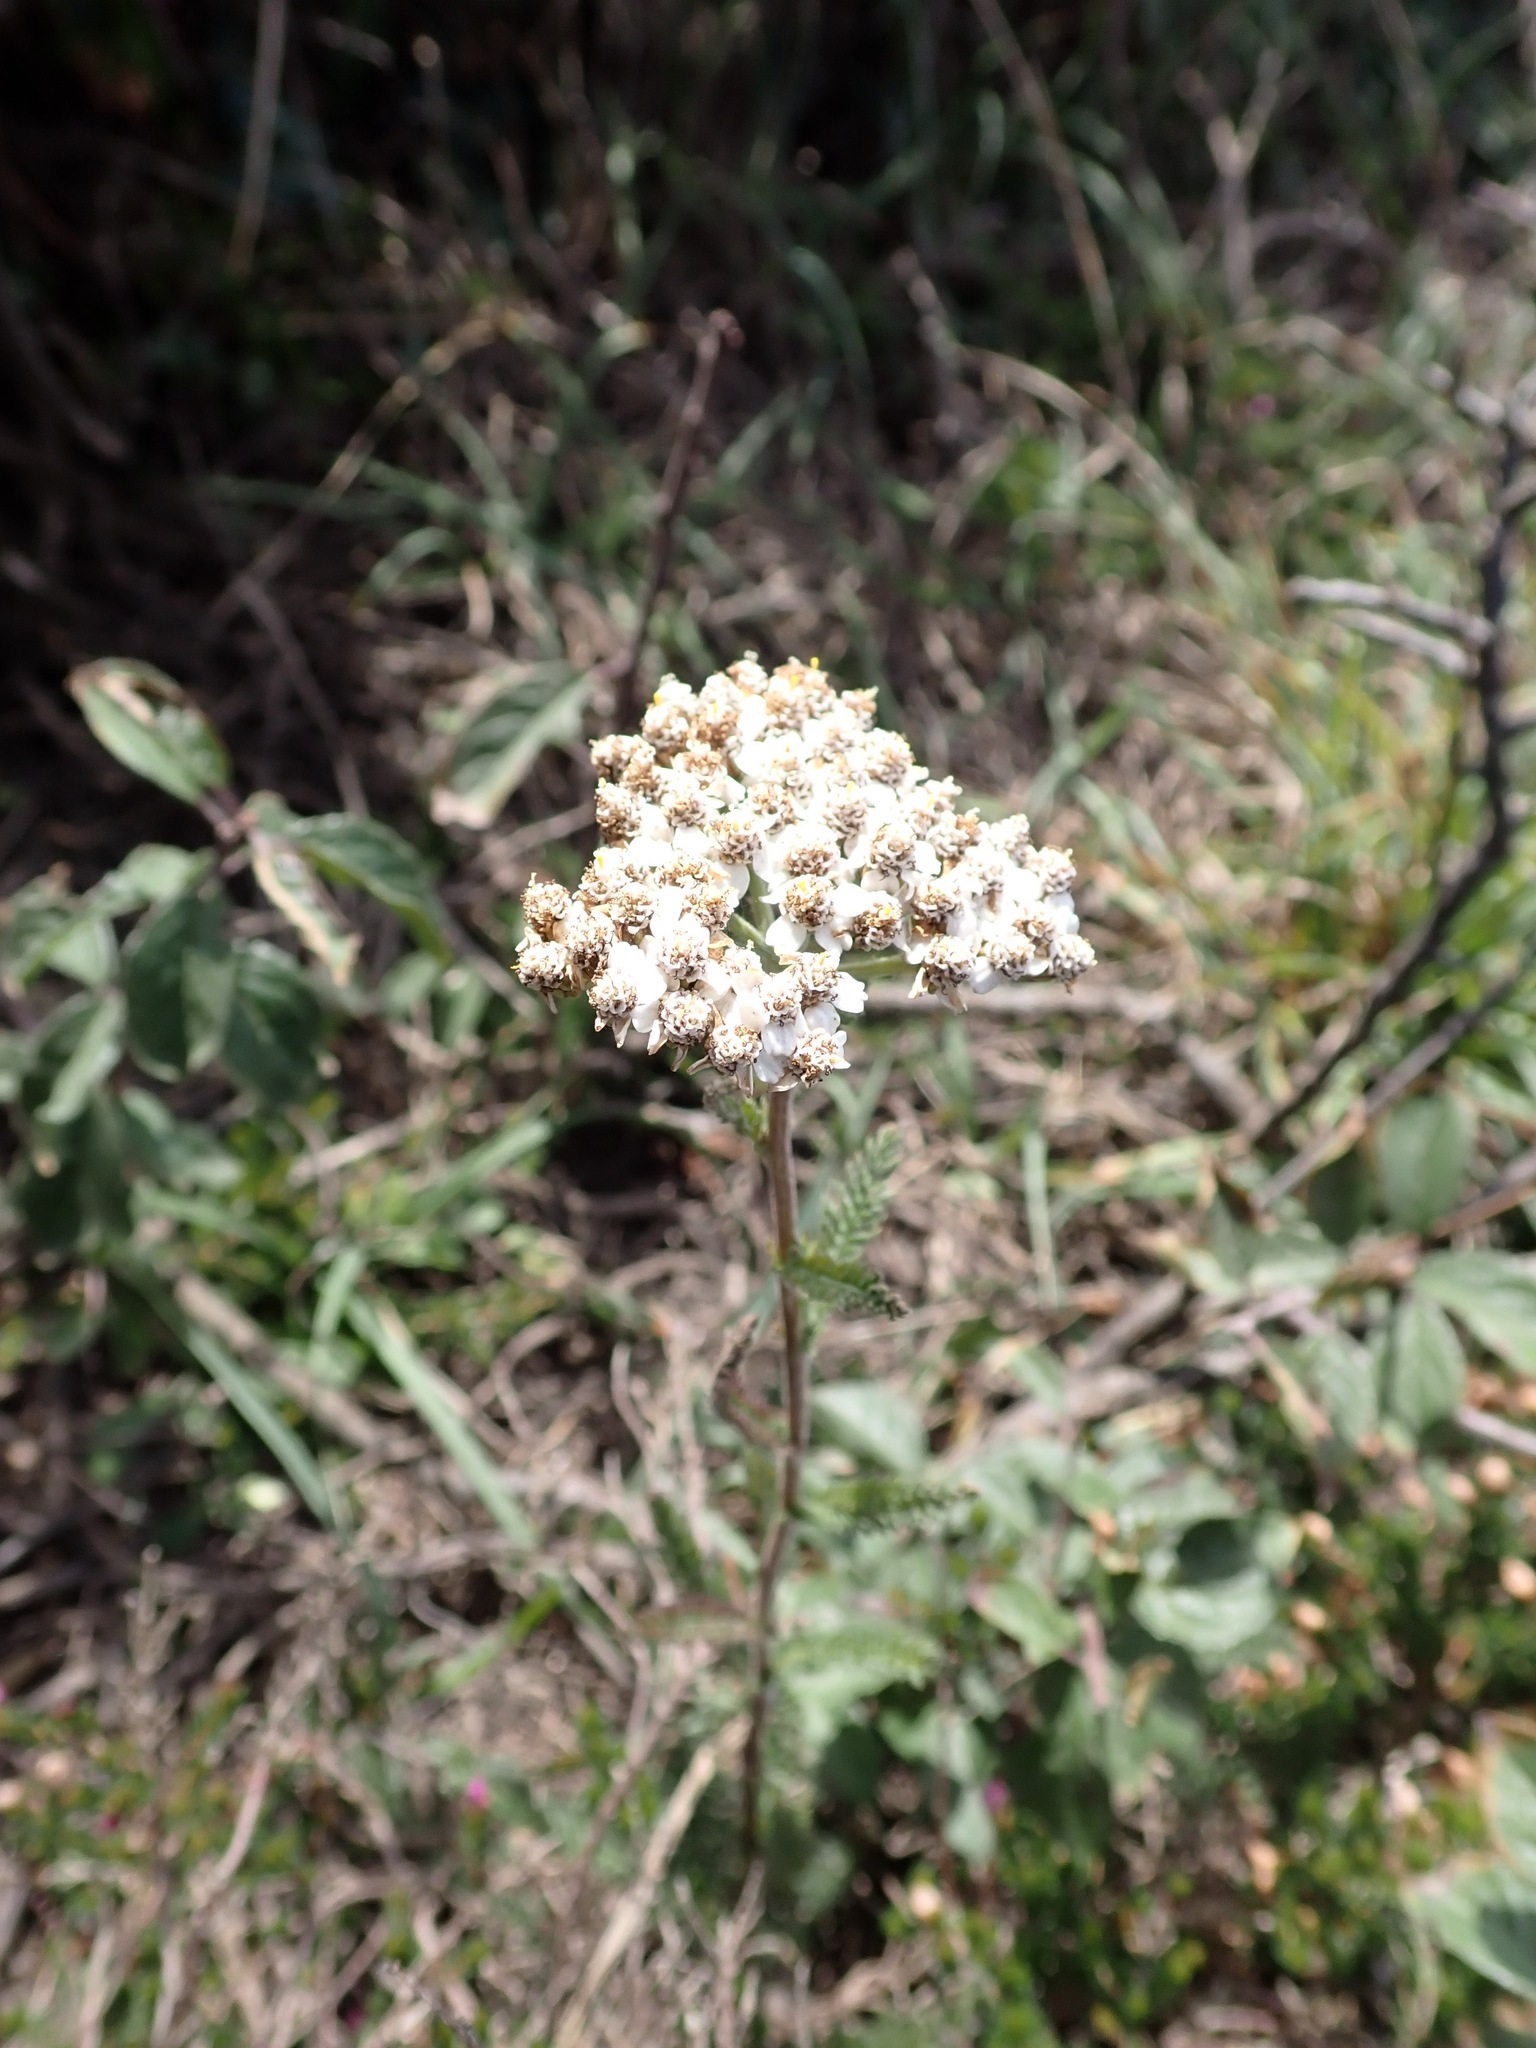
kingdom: Plantae
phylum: Tracheophyta
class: Magnoliopsida
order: Asterales
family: Asteraceae
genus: Achillea
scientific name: Achillea millefolium
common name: Yarrow
